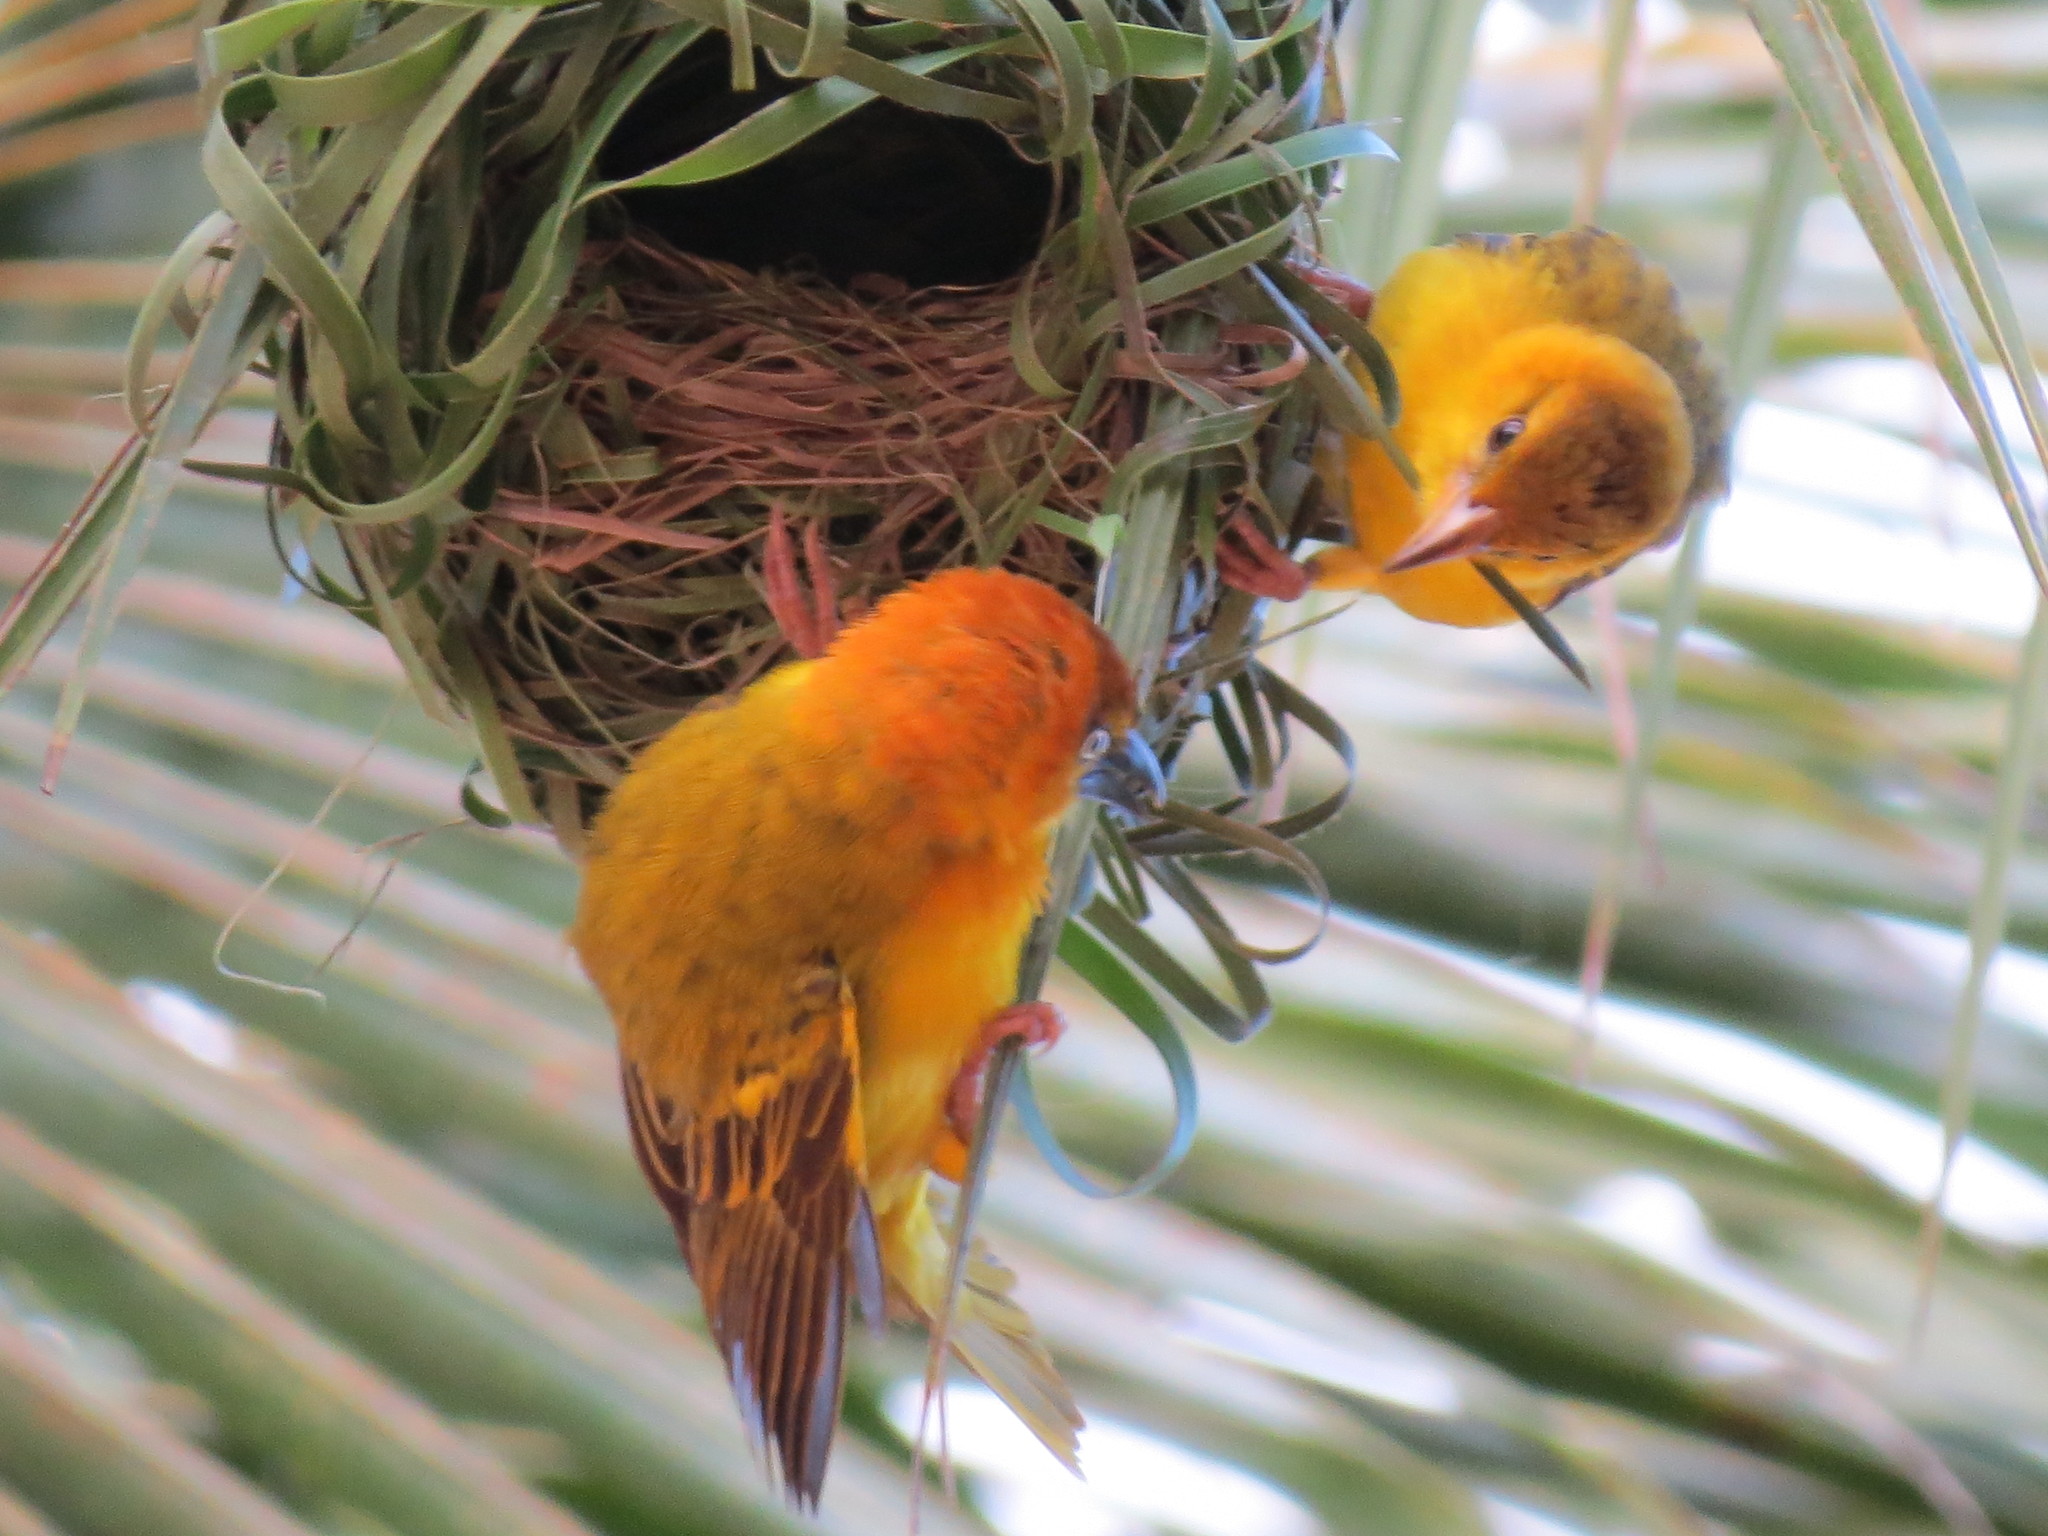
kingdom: Animalia
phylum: Chordata
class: Aves
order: Passeriformes
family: Ploceidae
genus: Ploceus
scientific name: Ploceus princeps
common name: Principe weaver
